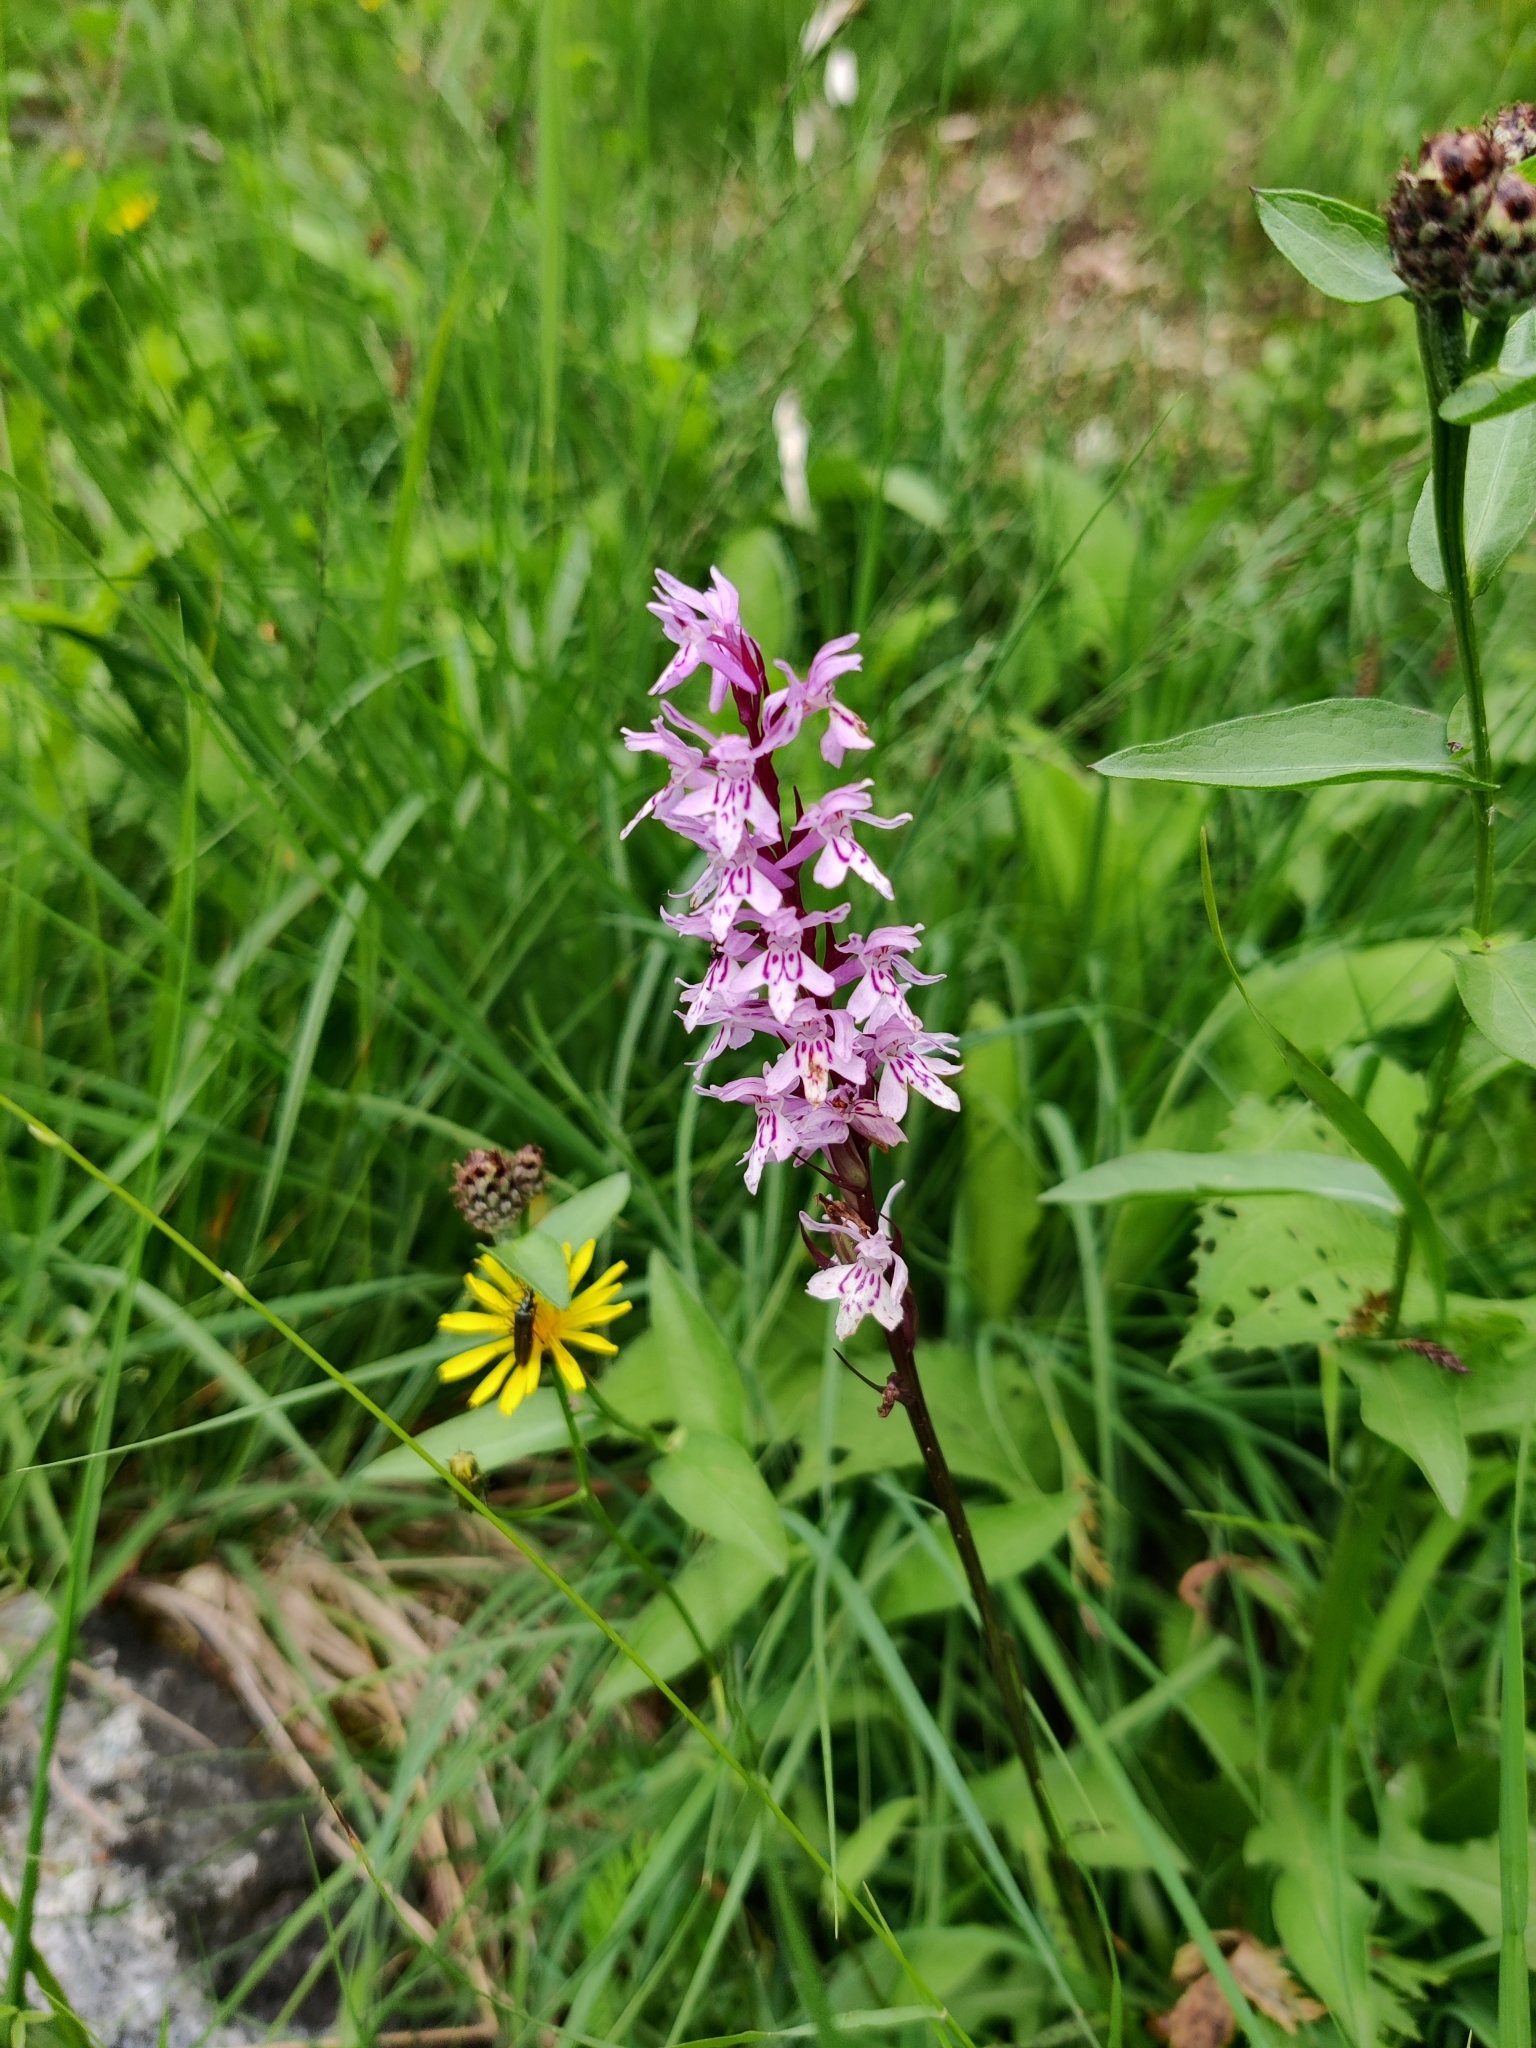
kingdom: Plantae
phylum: Tracheophyta
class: Liliopsida
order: Asparagales
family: Orchidaceae
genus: Dactylorhiza
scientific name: Dactylorhiza maculata
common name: Heath spotted-orchid
